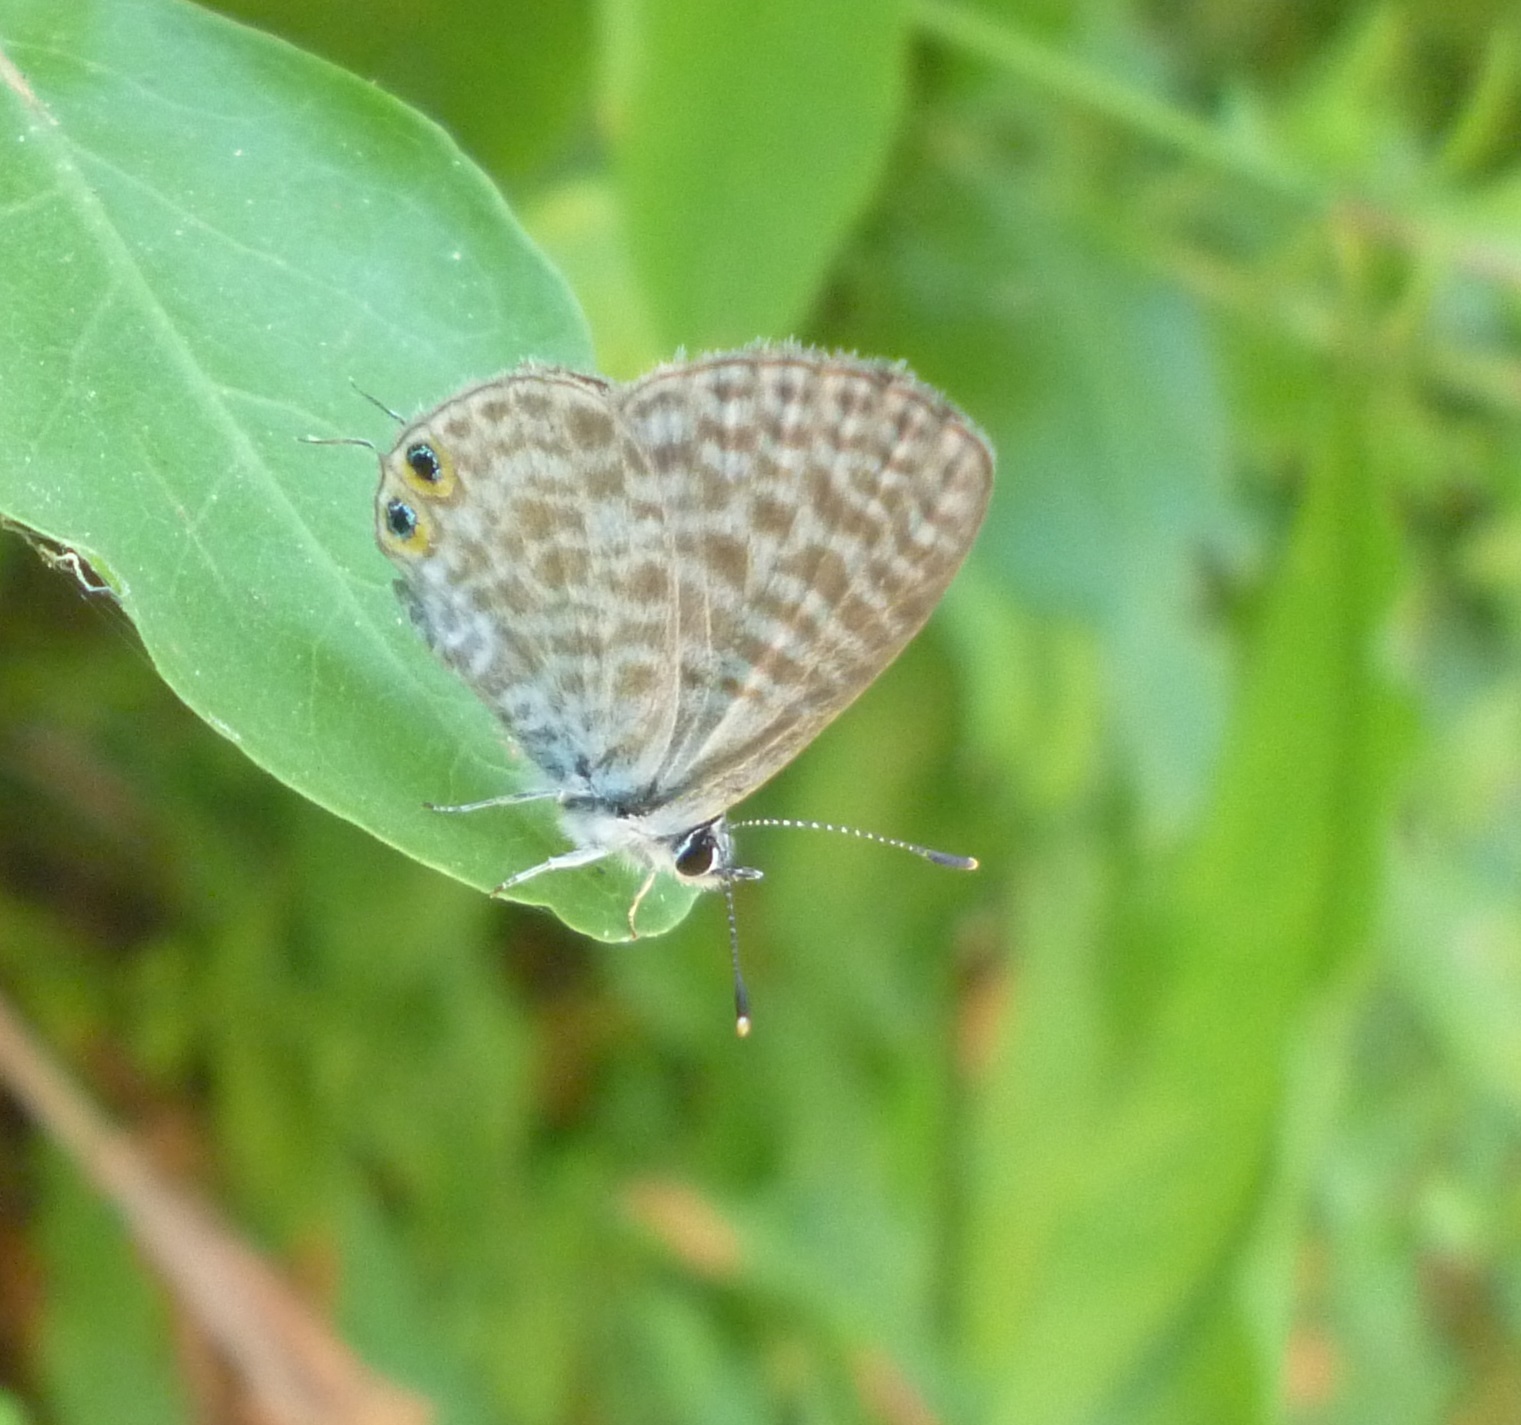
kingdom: Animalia
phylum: Arthropoda
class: Insecta
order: Lepidoptera
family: Lycaenidae
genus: Leptotes
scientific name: Leptotes pirithous
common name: Lang's short-tailed blue
